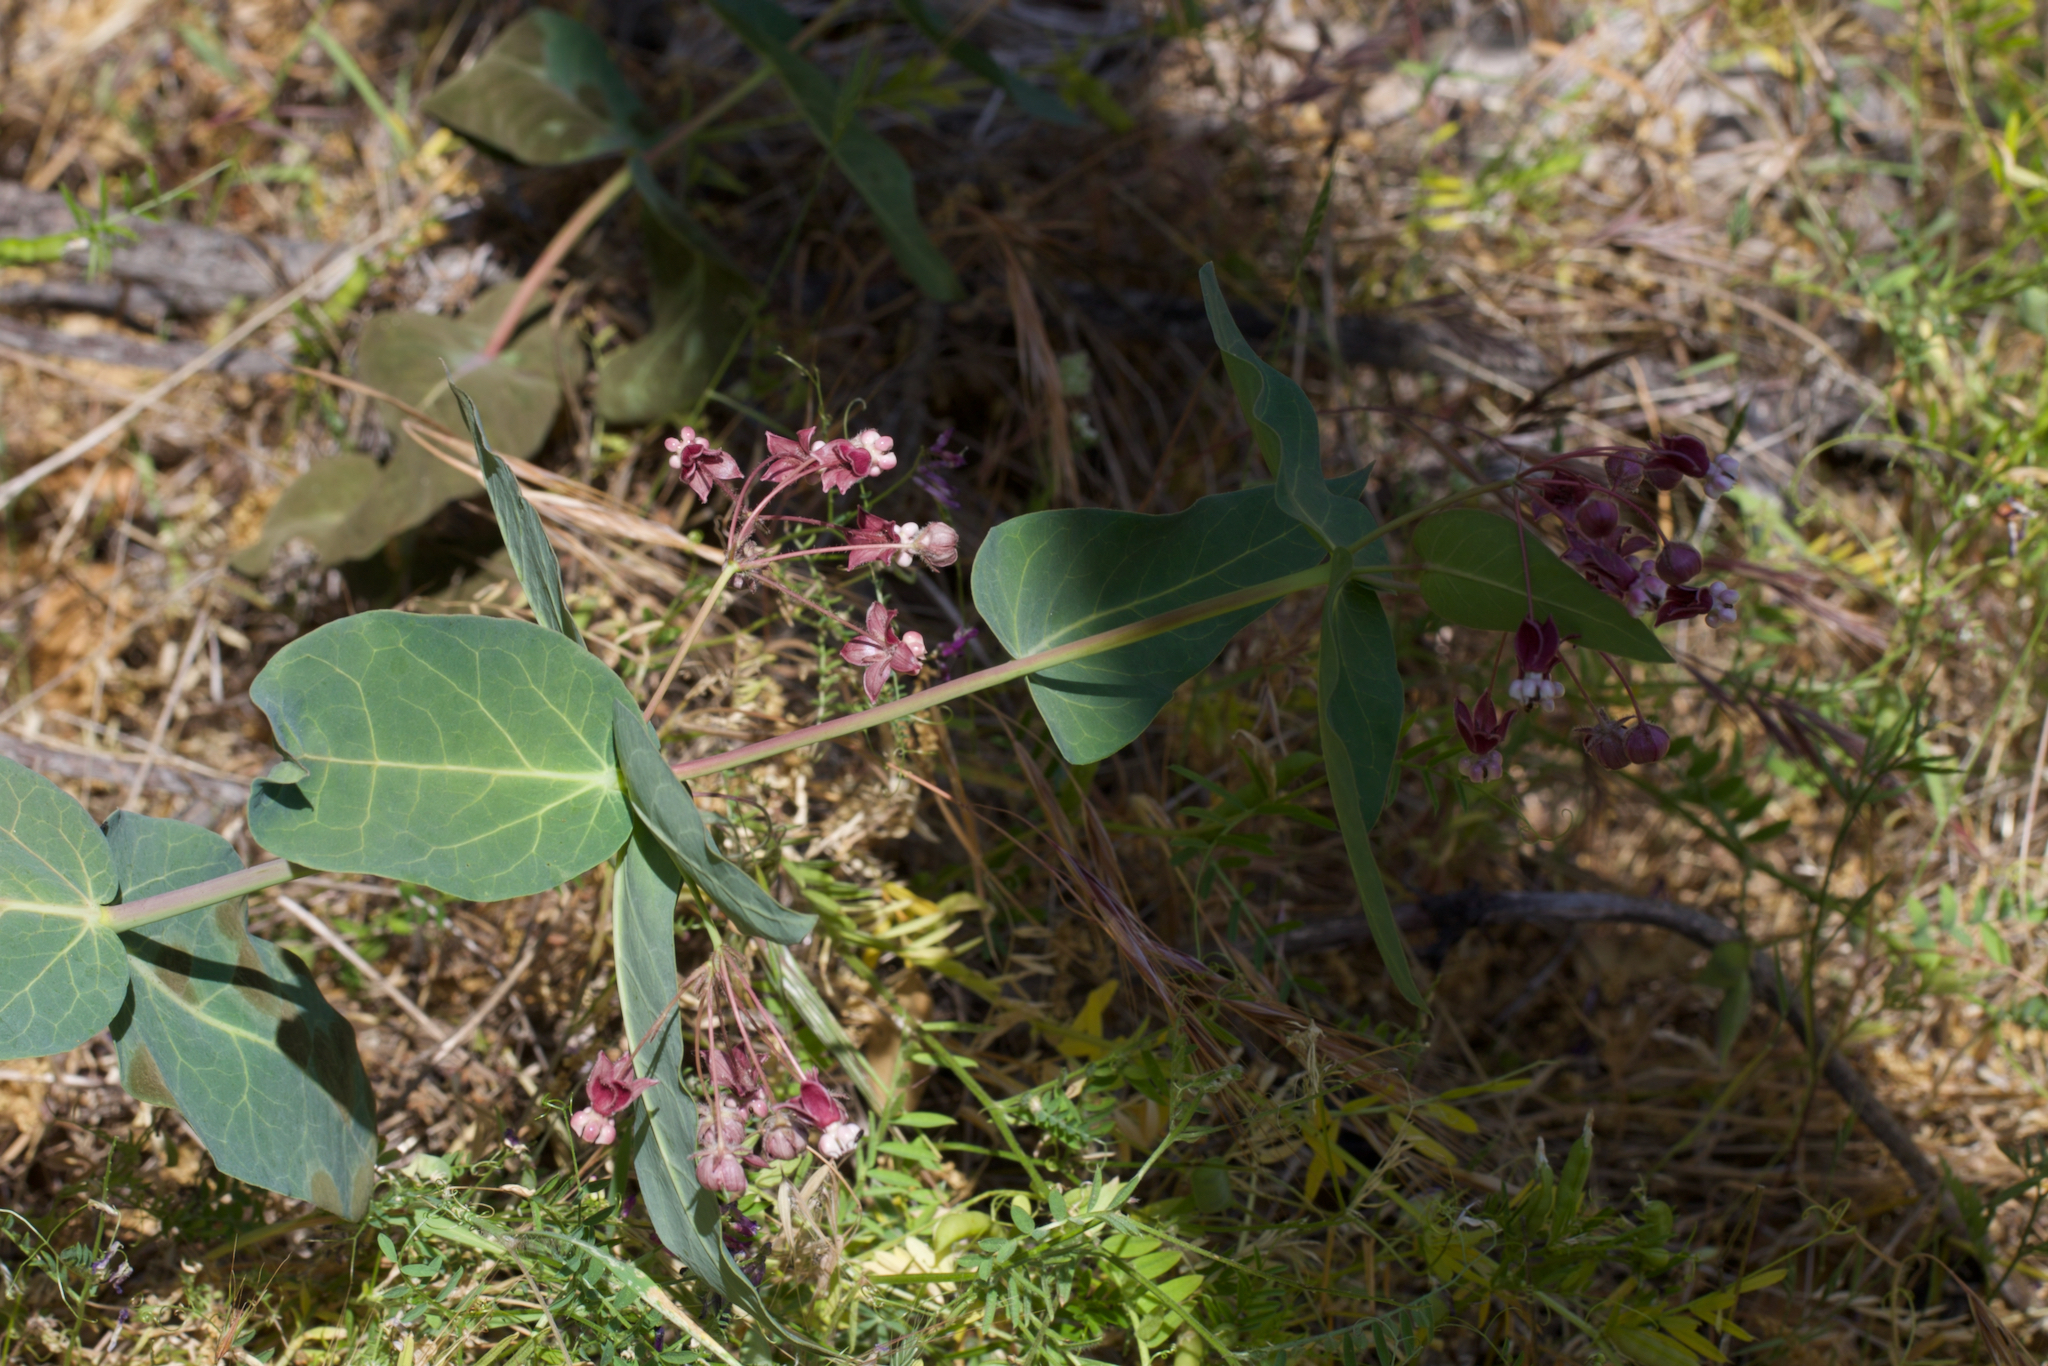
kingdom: Plantae
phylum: Tracheophyta
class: Magnoliopsida
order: Gentianales
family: Apocynaceae
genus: Asclepias
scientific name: Asclepias cordifolia
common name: Purple milkweed
